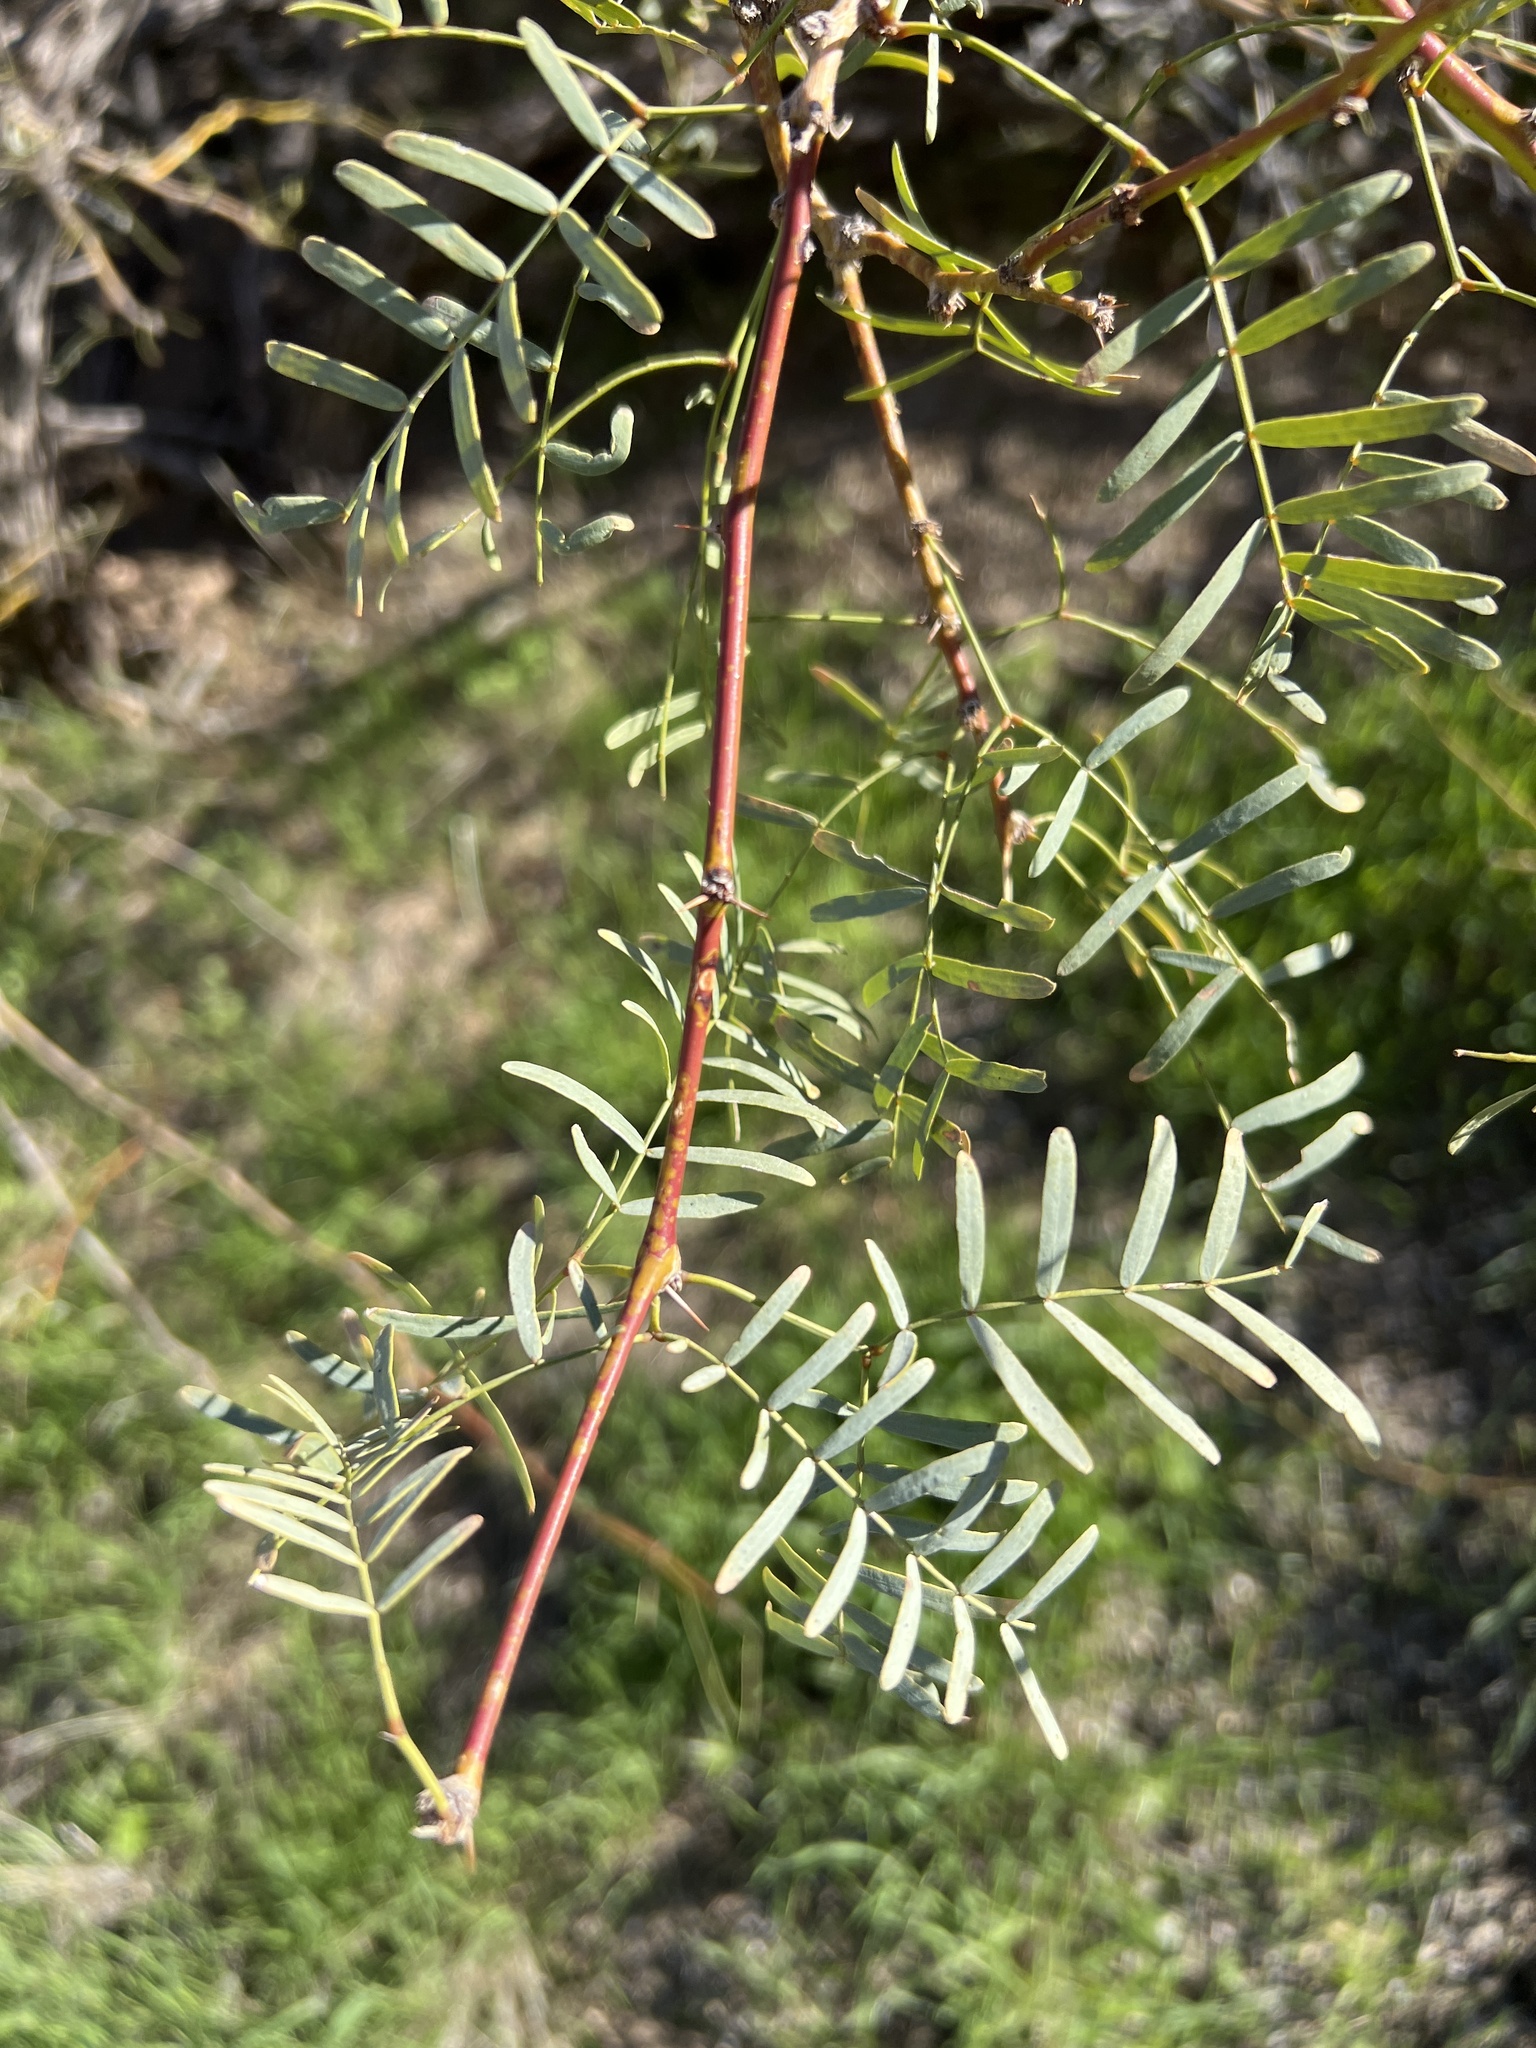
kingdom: Plantae
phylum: Tracheophyta
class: Magnoliopsida
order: Fabales
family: Fabaceae
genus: Prosopis
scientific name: Prosopis pubescens
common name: Screw-bean
